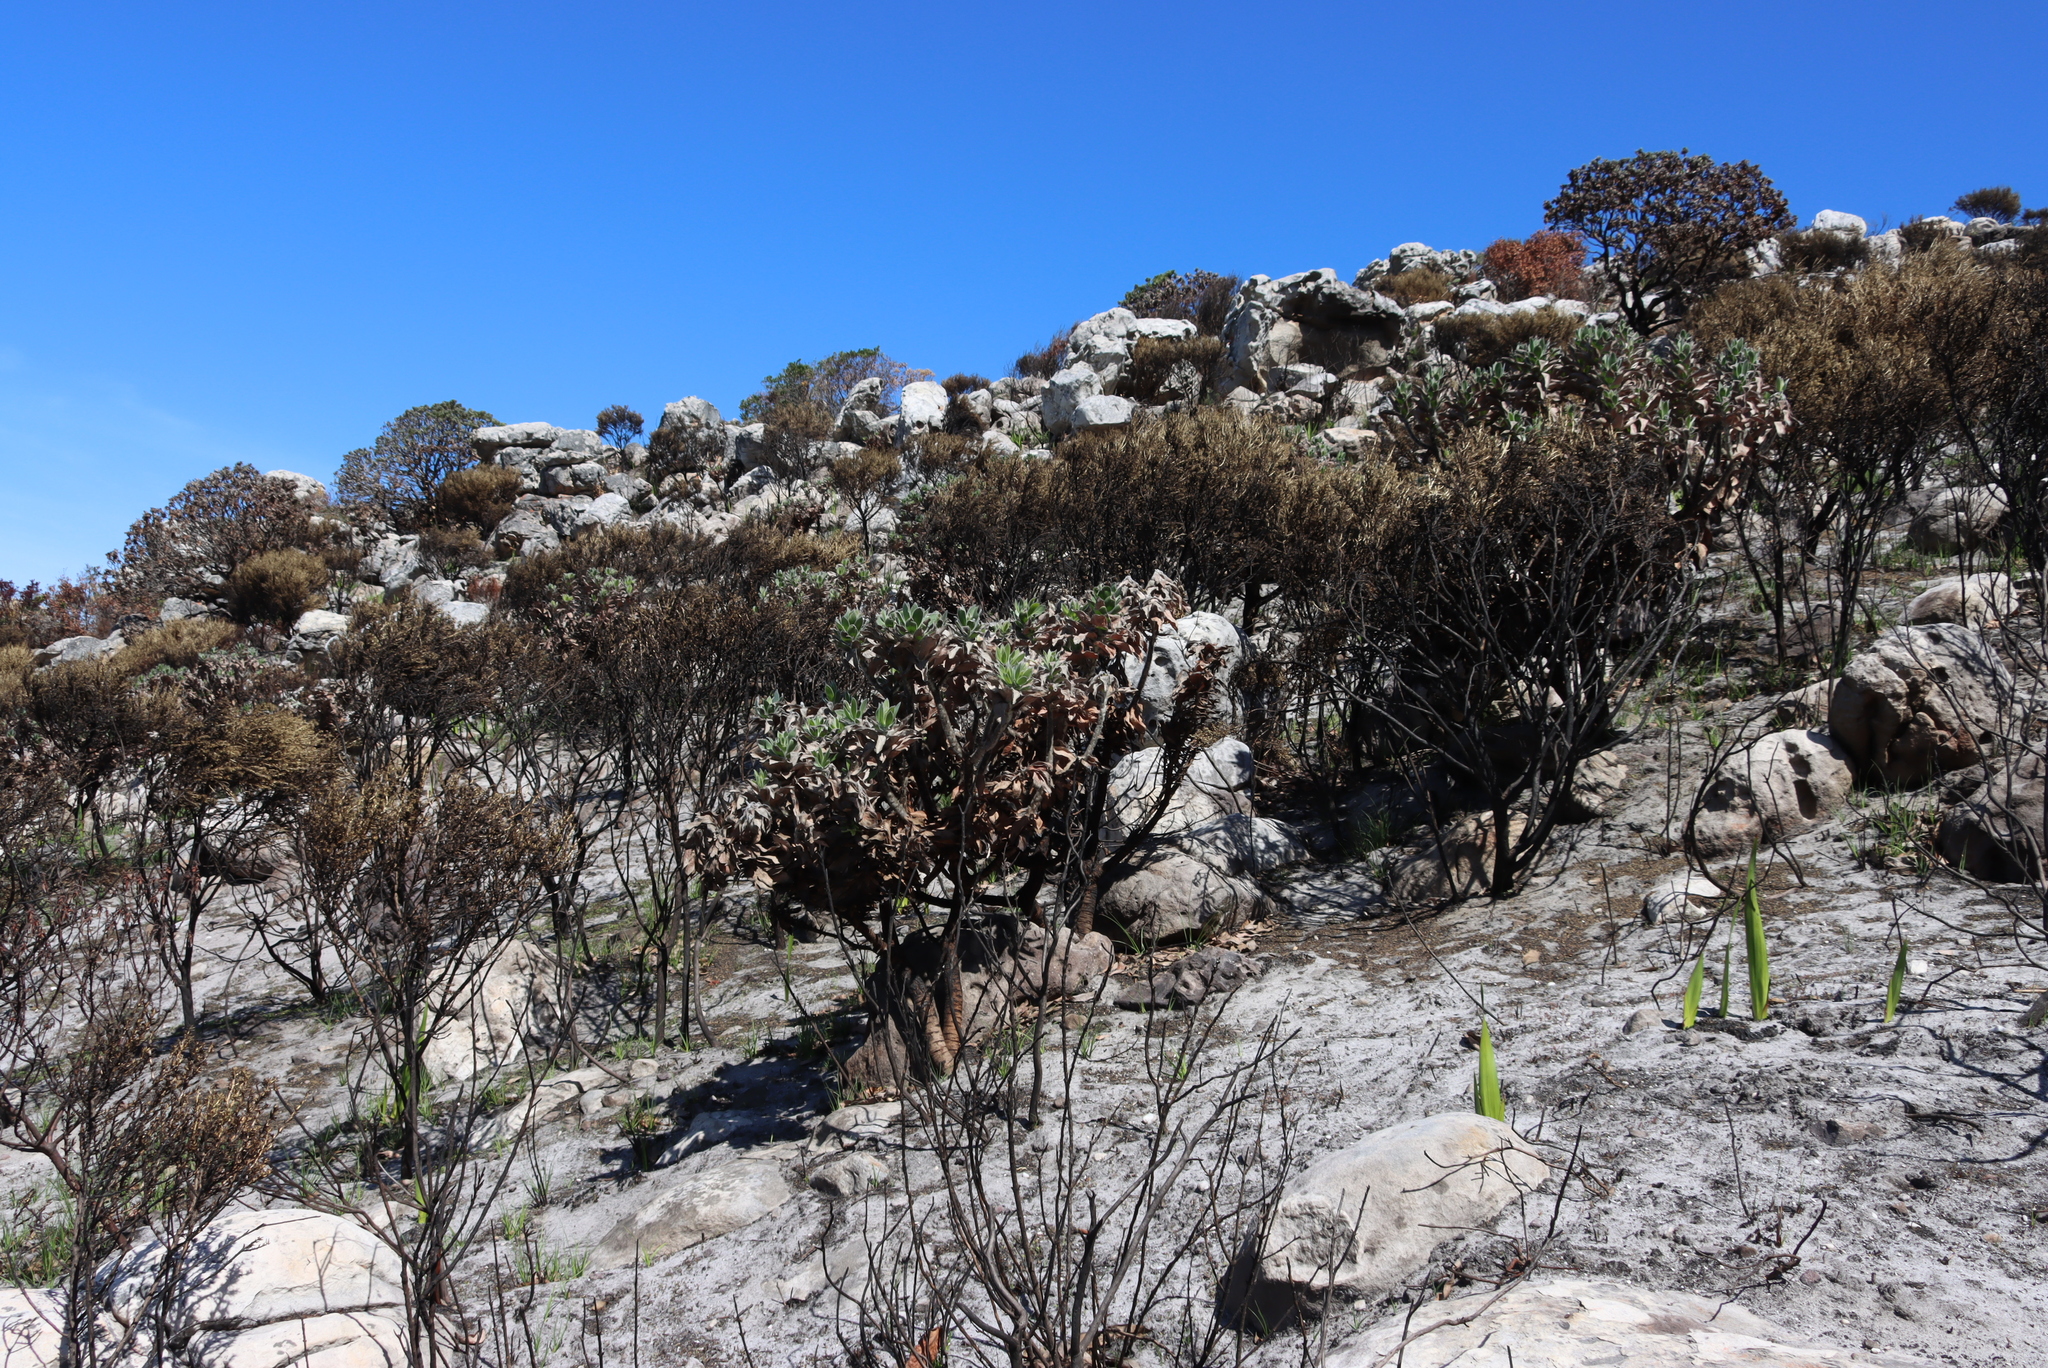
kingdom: Plantae
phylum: Tracheophyta
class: Magnoliopsida
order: Proteales
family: Proteaceae
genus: Leucospermum
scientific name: Leucospermum conocarpodendron
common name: Tree pincushion
